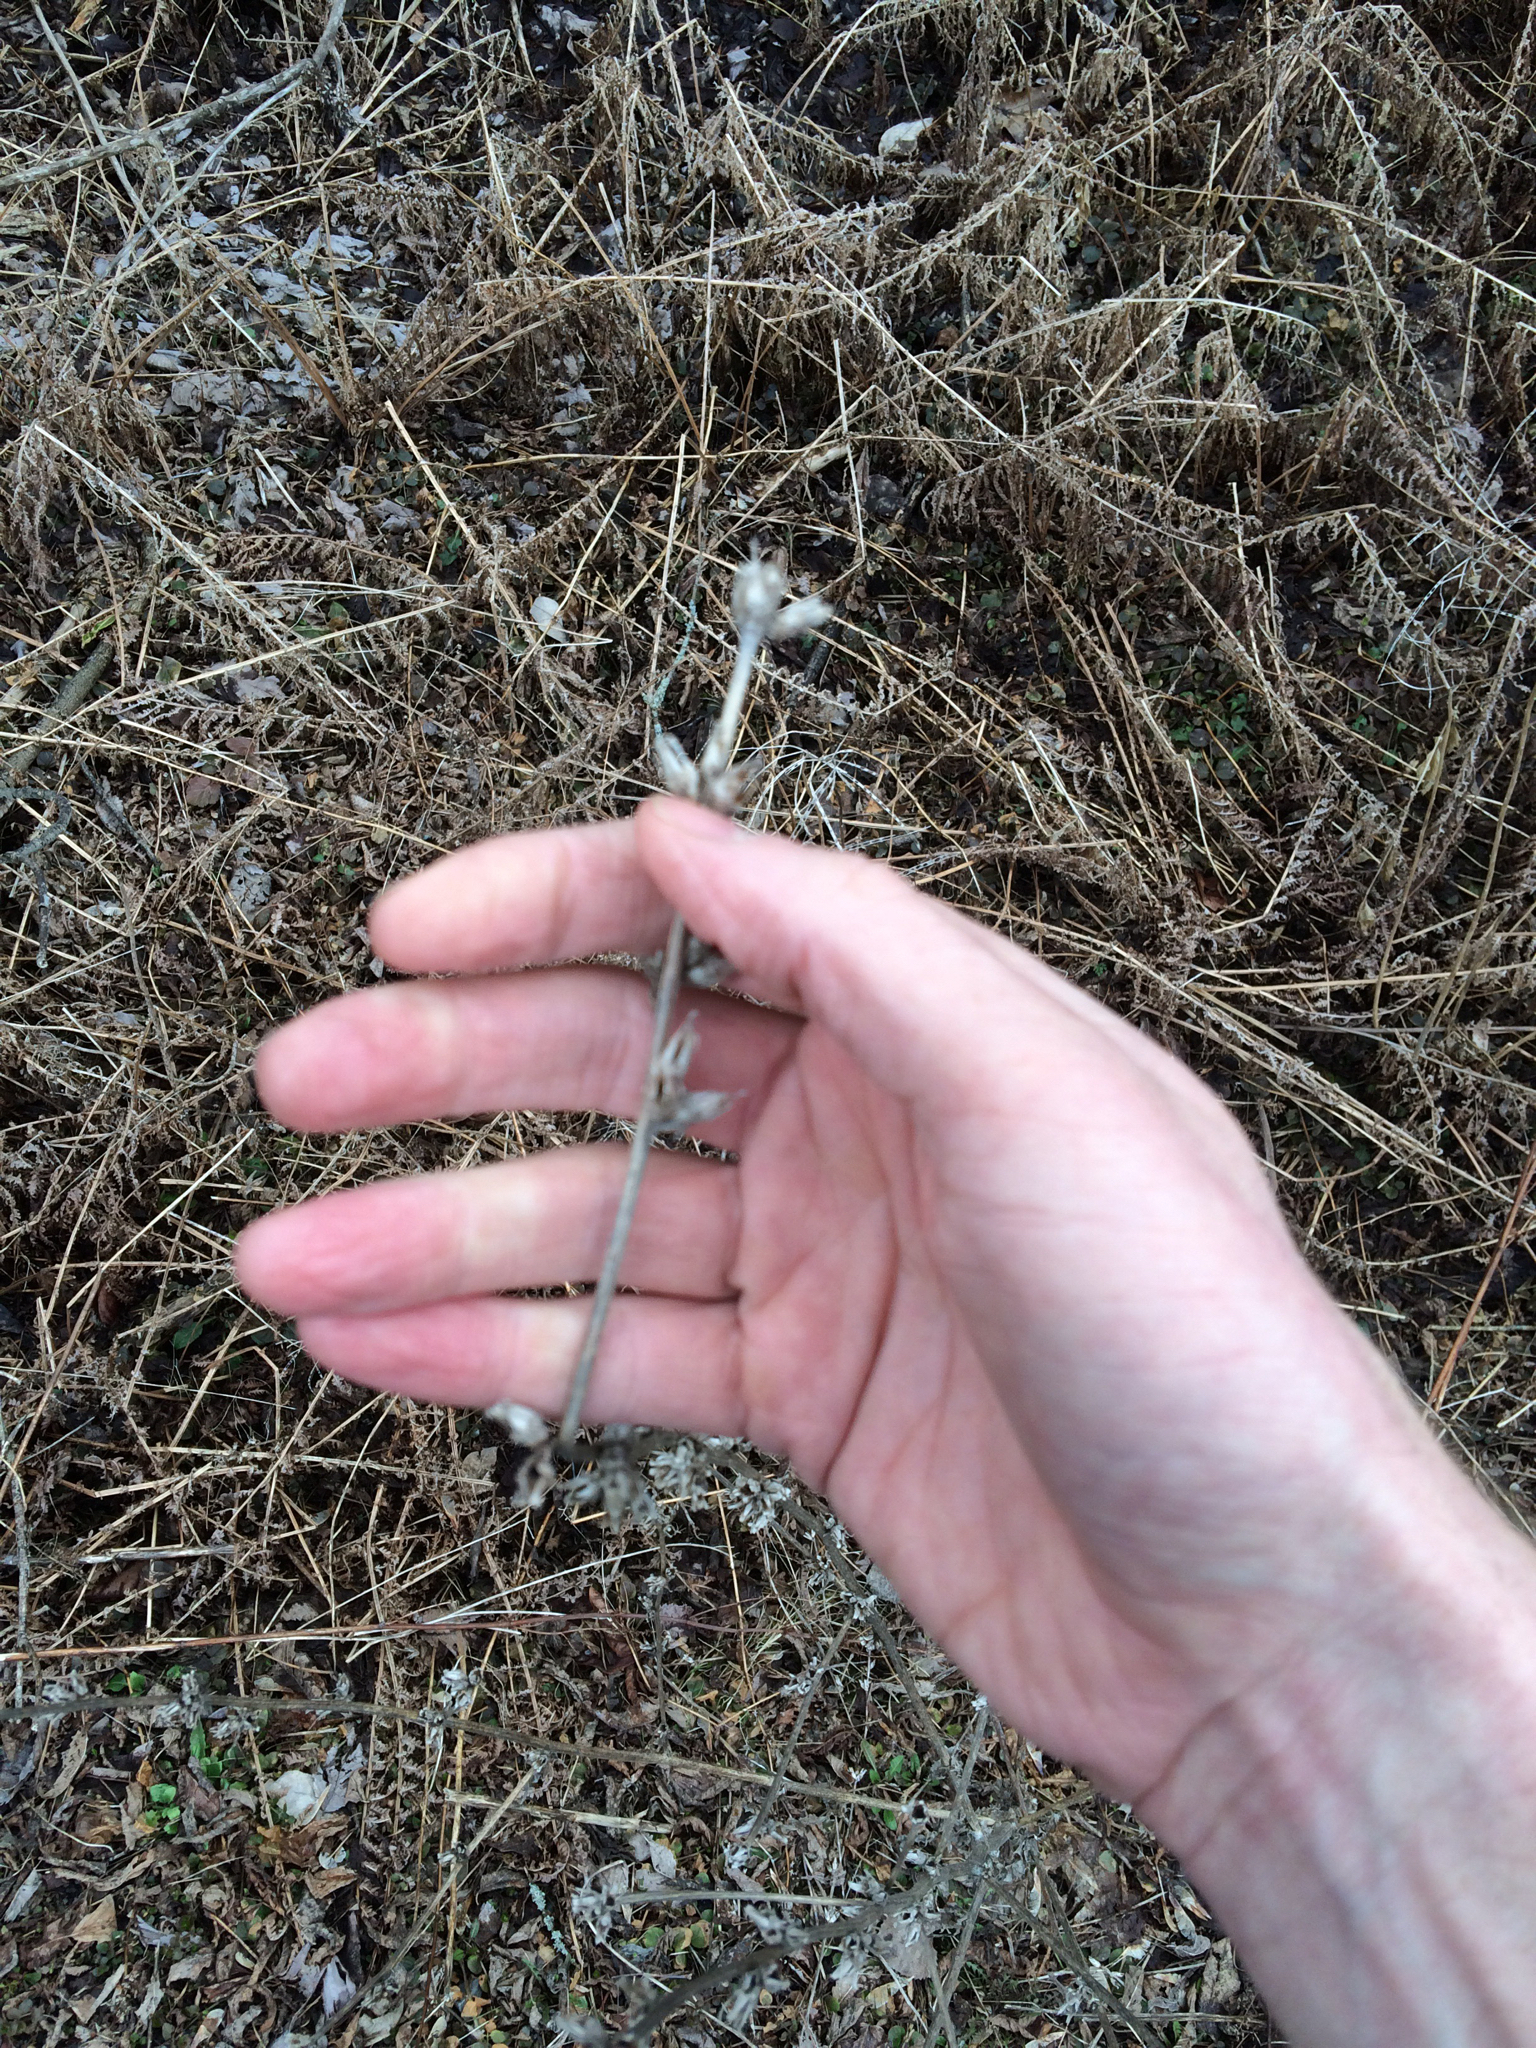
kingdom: Plantae
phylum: Tracheophyta
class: Magnoliopsida
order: Asterales
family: Asteraceae
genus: Cichorium
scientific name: Cichorium intybus
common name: Chicory
